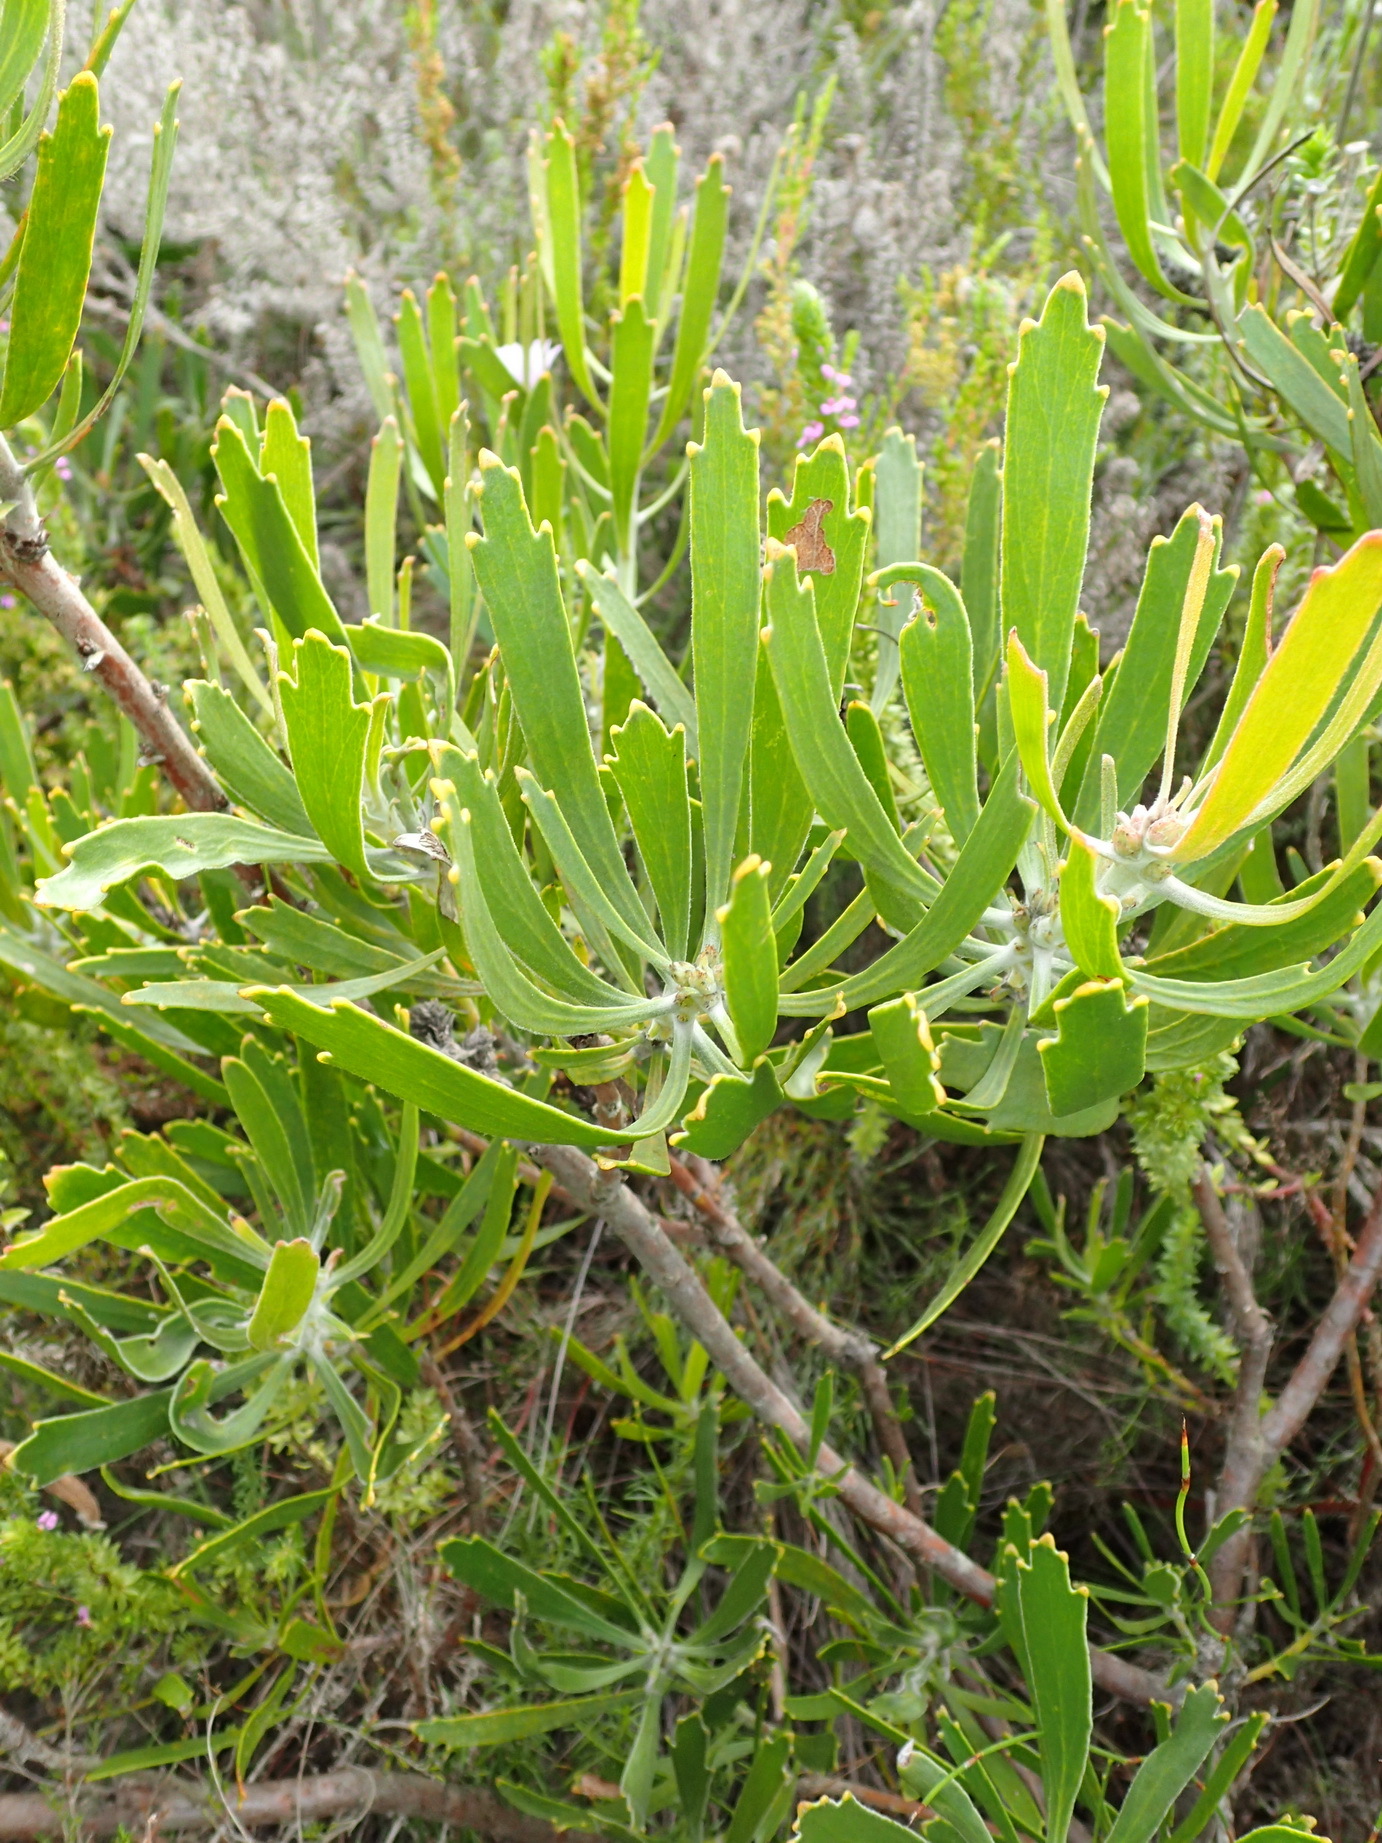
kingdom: Plantae
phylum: Tracheophyta
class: Magnoliopsida
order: Proteales
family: Proteaceae
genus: Leucospermum
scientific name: Leucospermum cuneiforme
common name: Common pincushion
